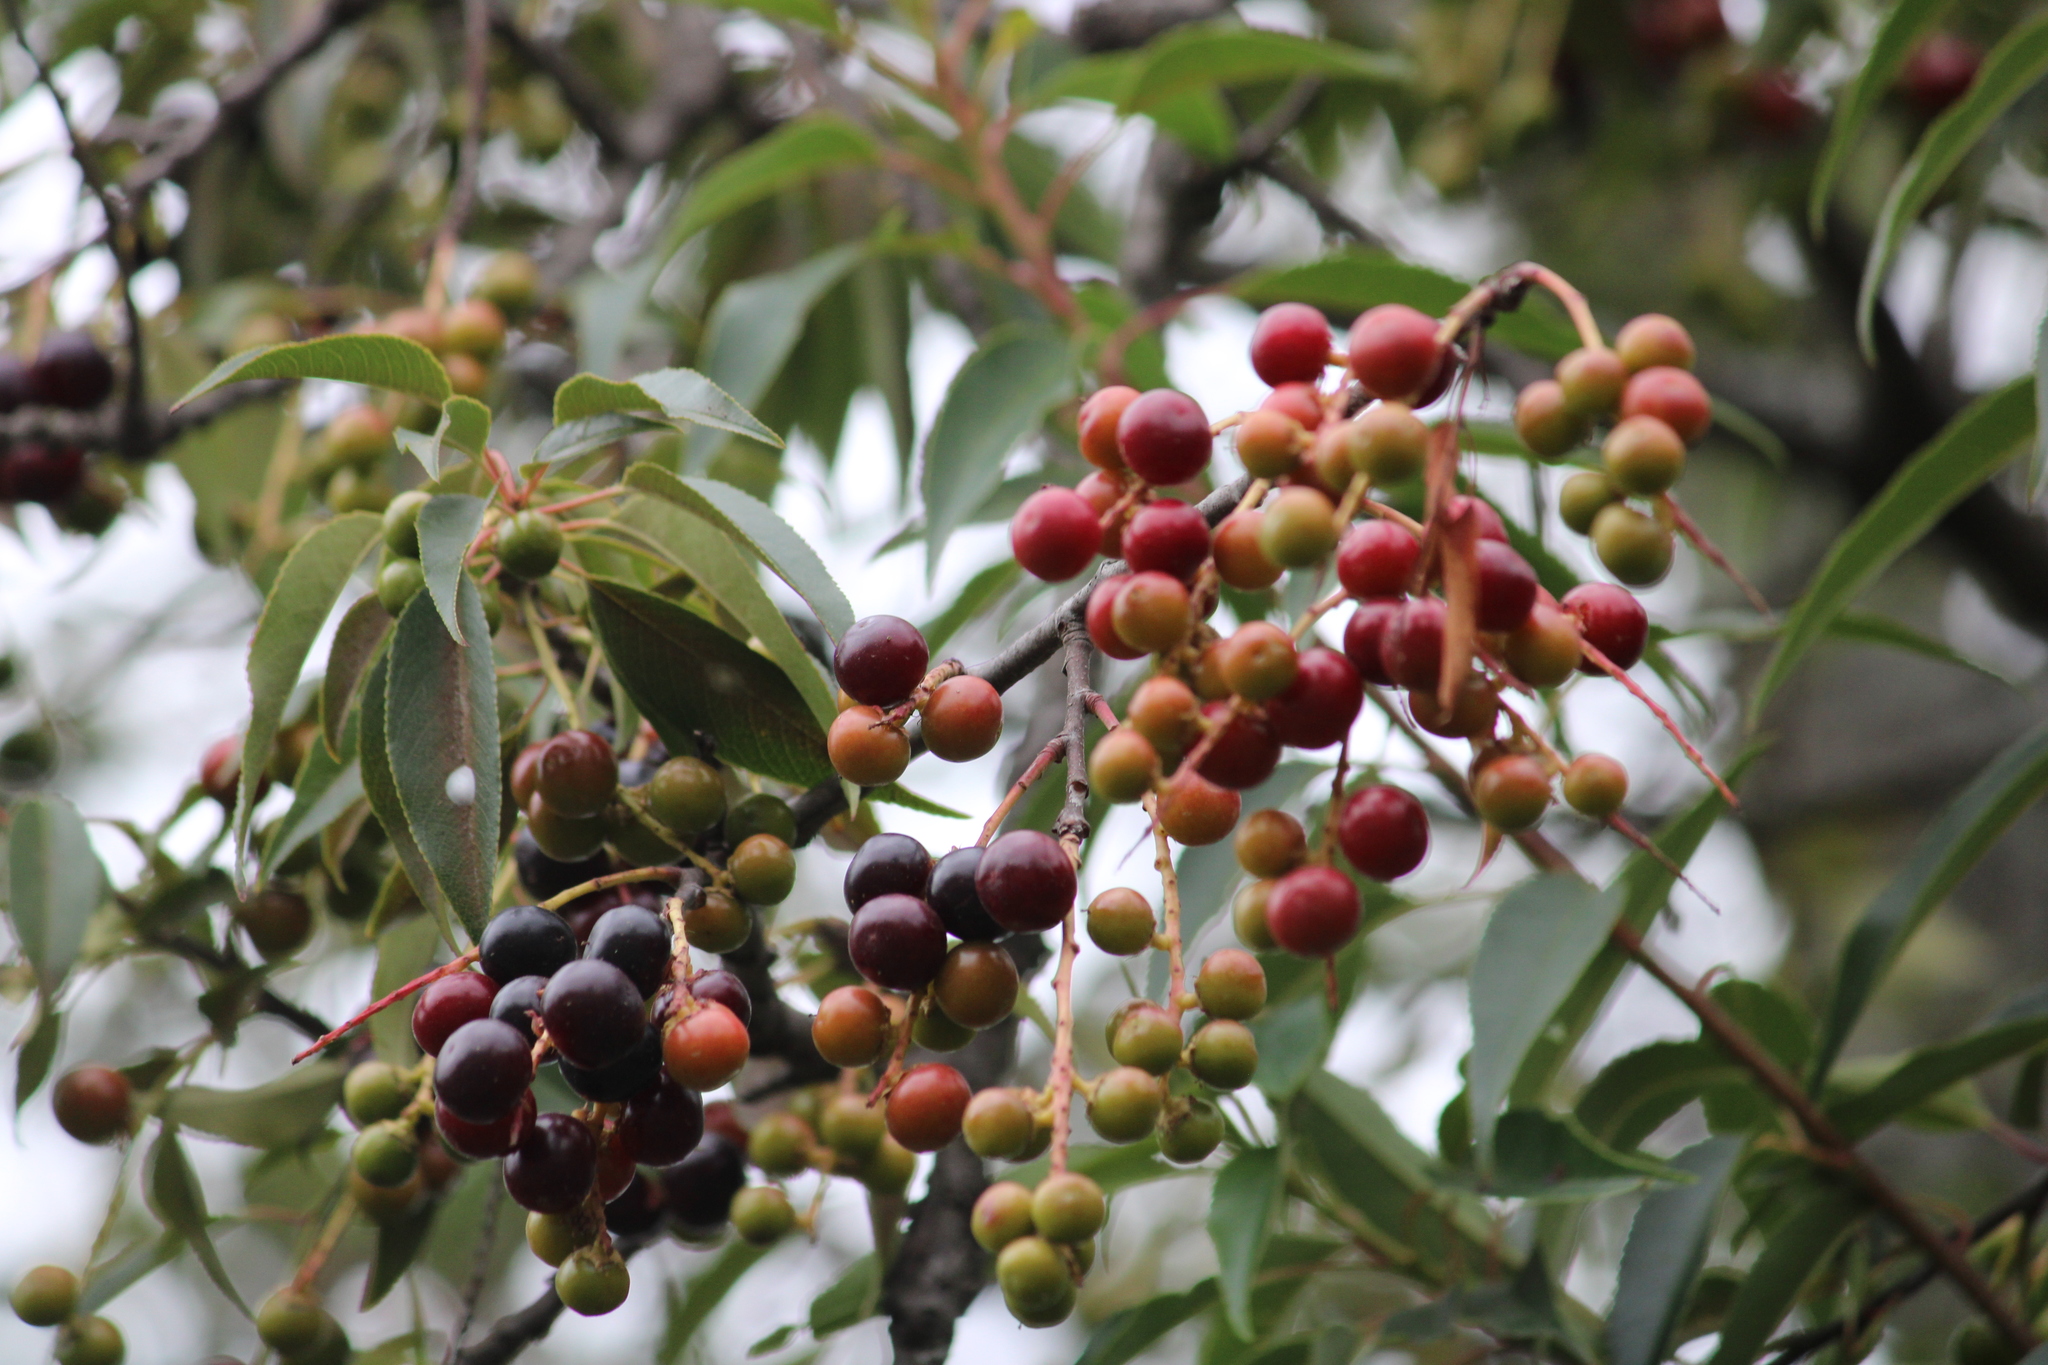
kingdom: Plantae
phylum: Tracheophyta
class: Magnoliopsida
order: Rosales
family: Rosaceae
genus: Prunus
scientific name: Prunus serotina
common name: Black cherry
